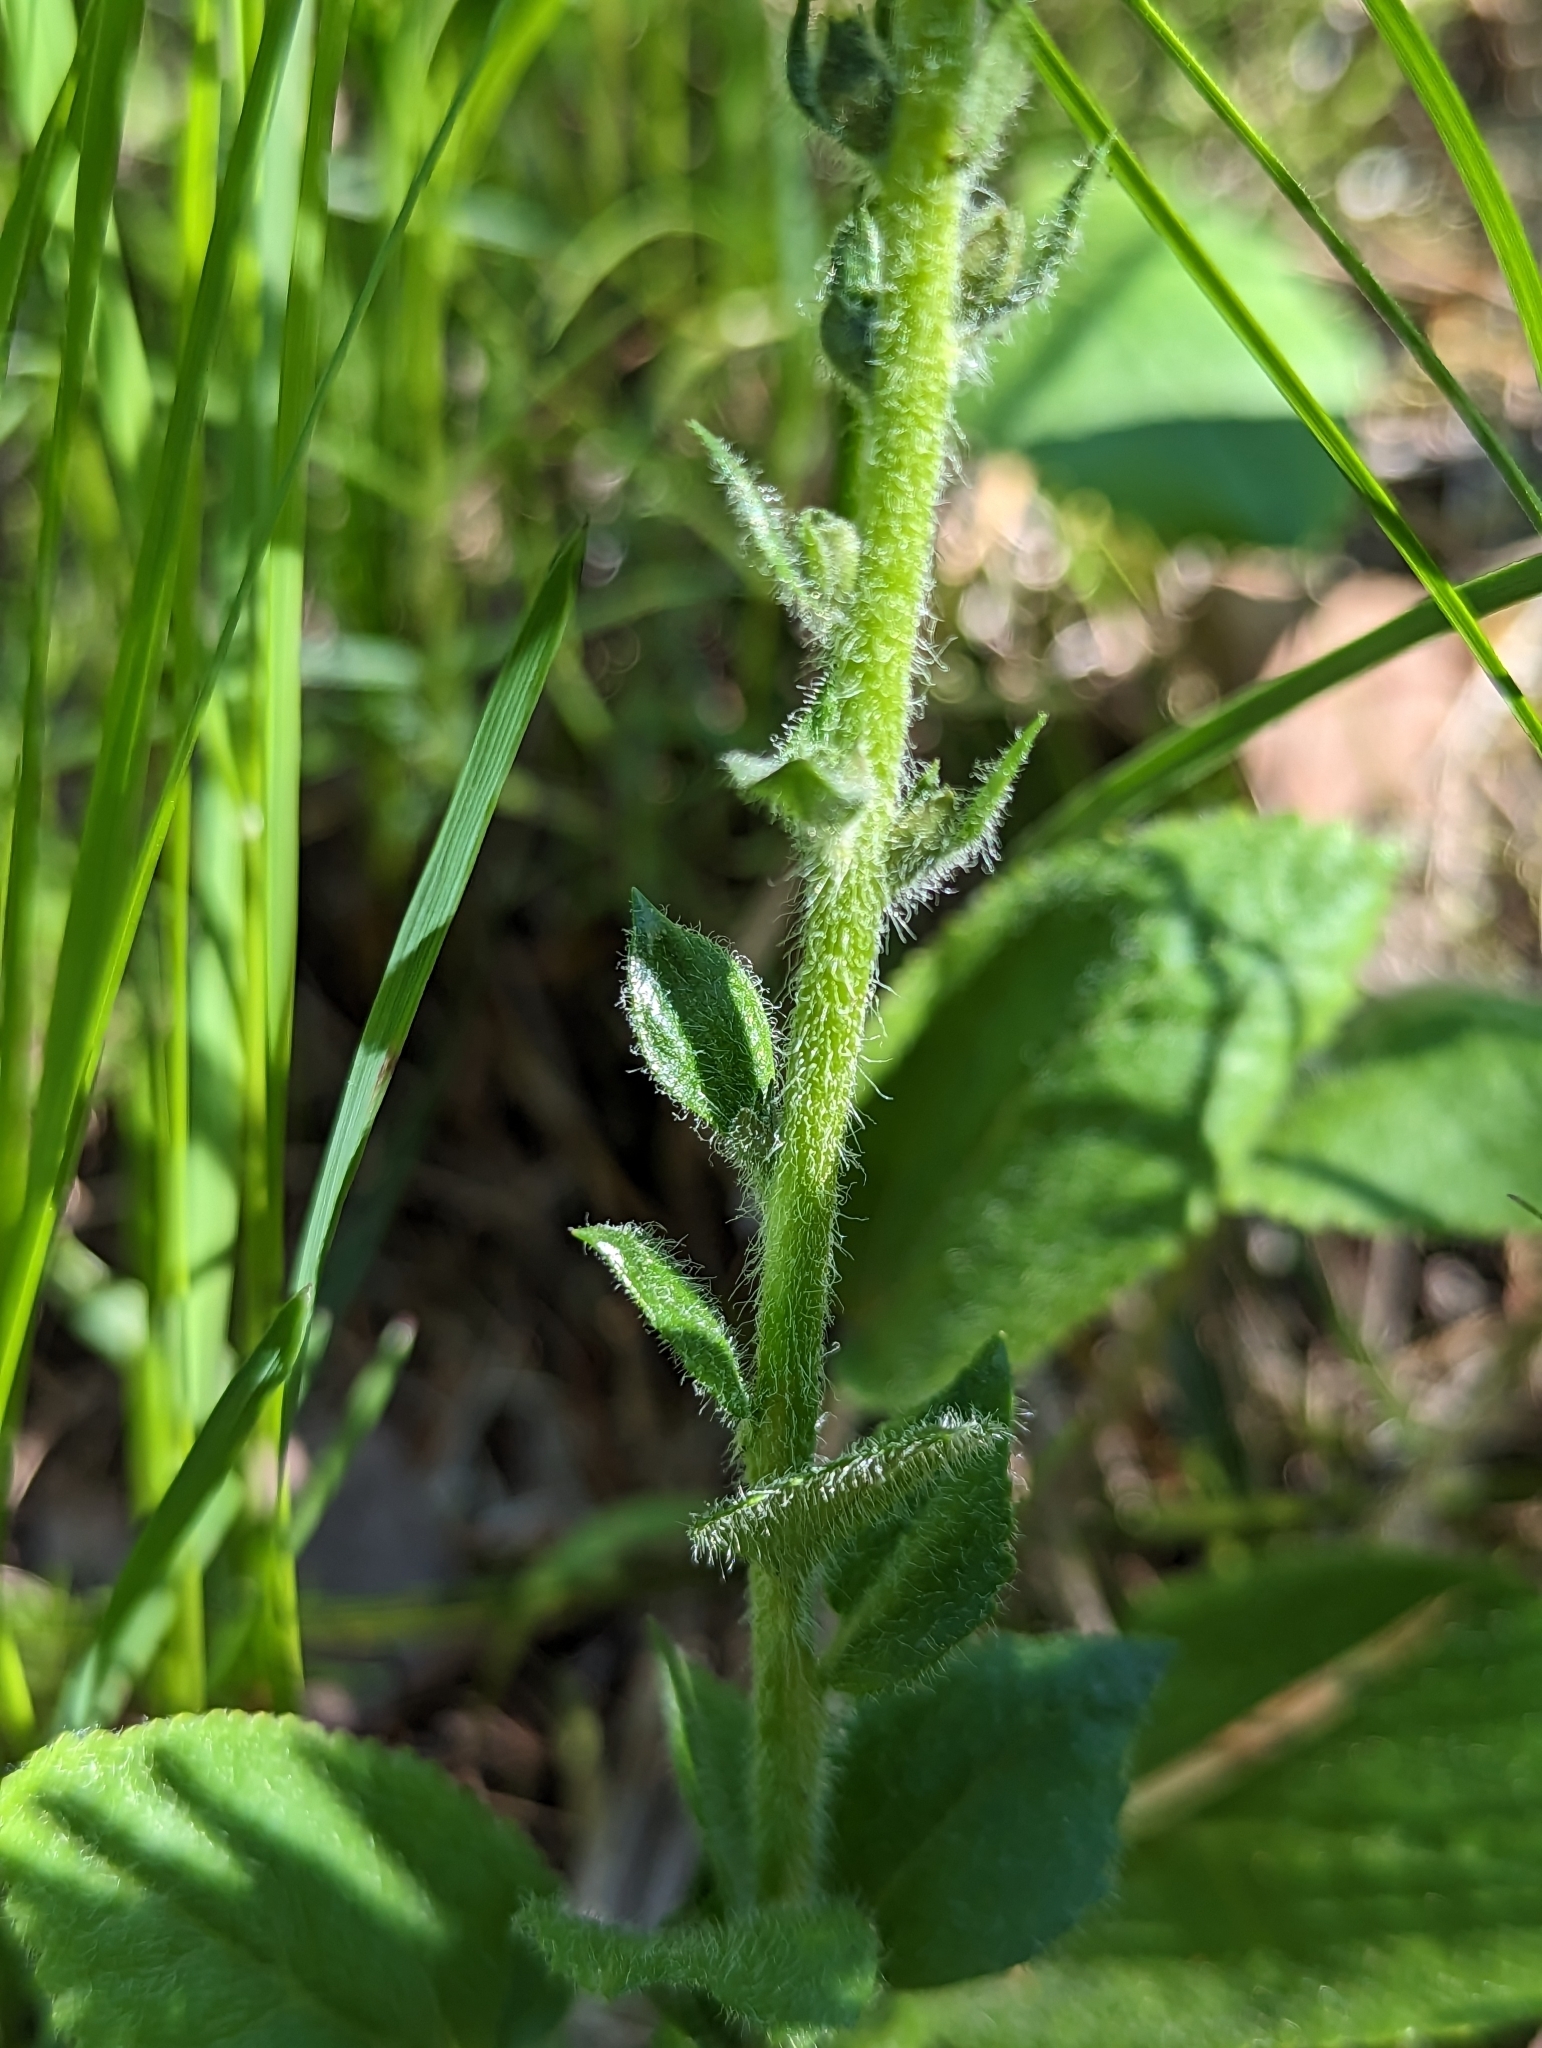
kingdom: Plantae
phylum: Tracheophyta
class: Magnoliopsida
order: Lamiales
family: Plantaginaceae
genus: Synthyris
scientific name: Synthyris rubra
